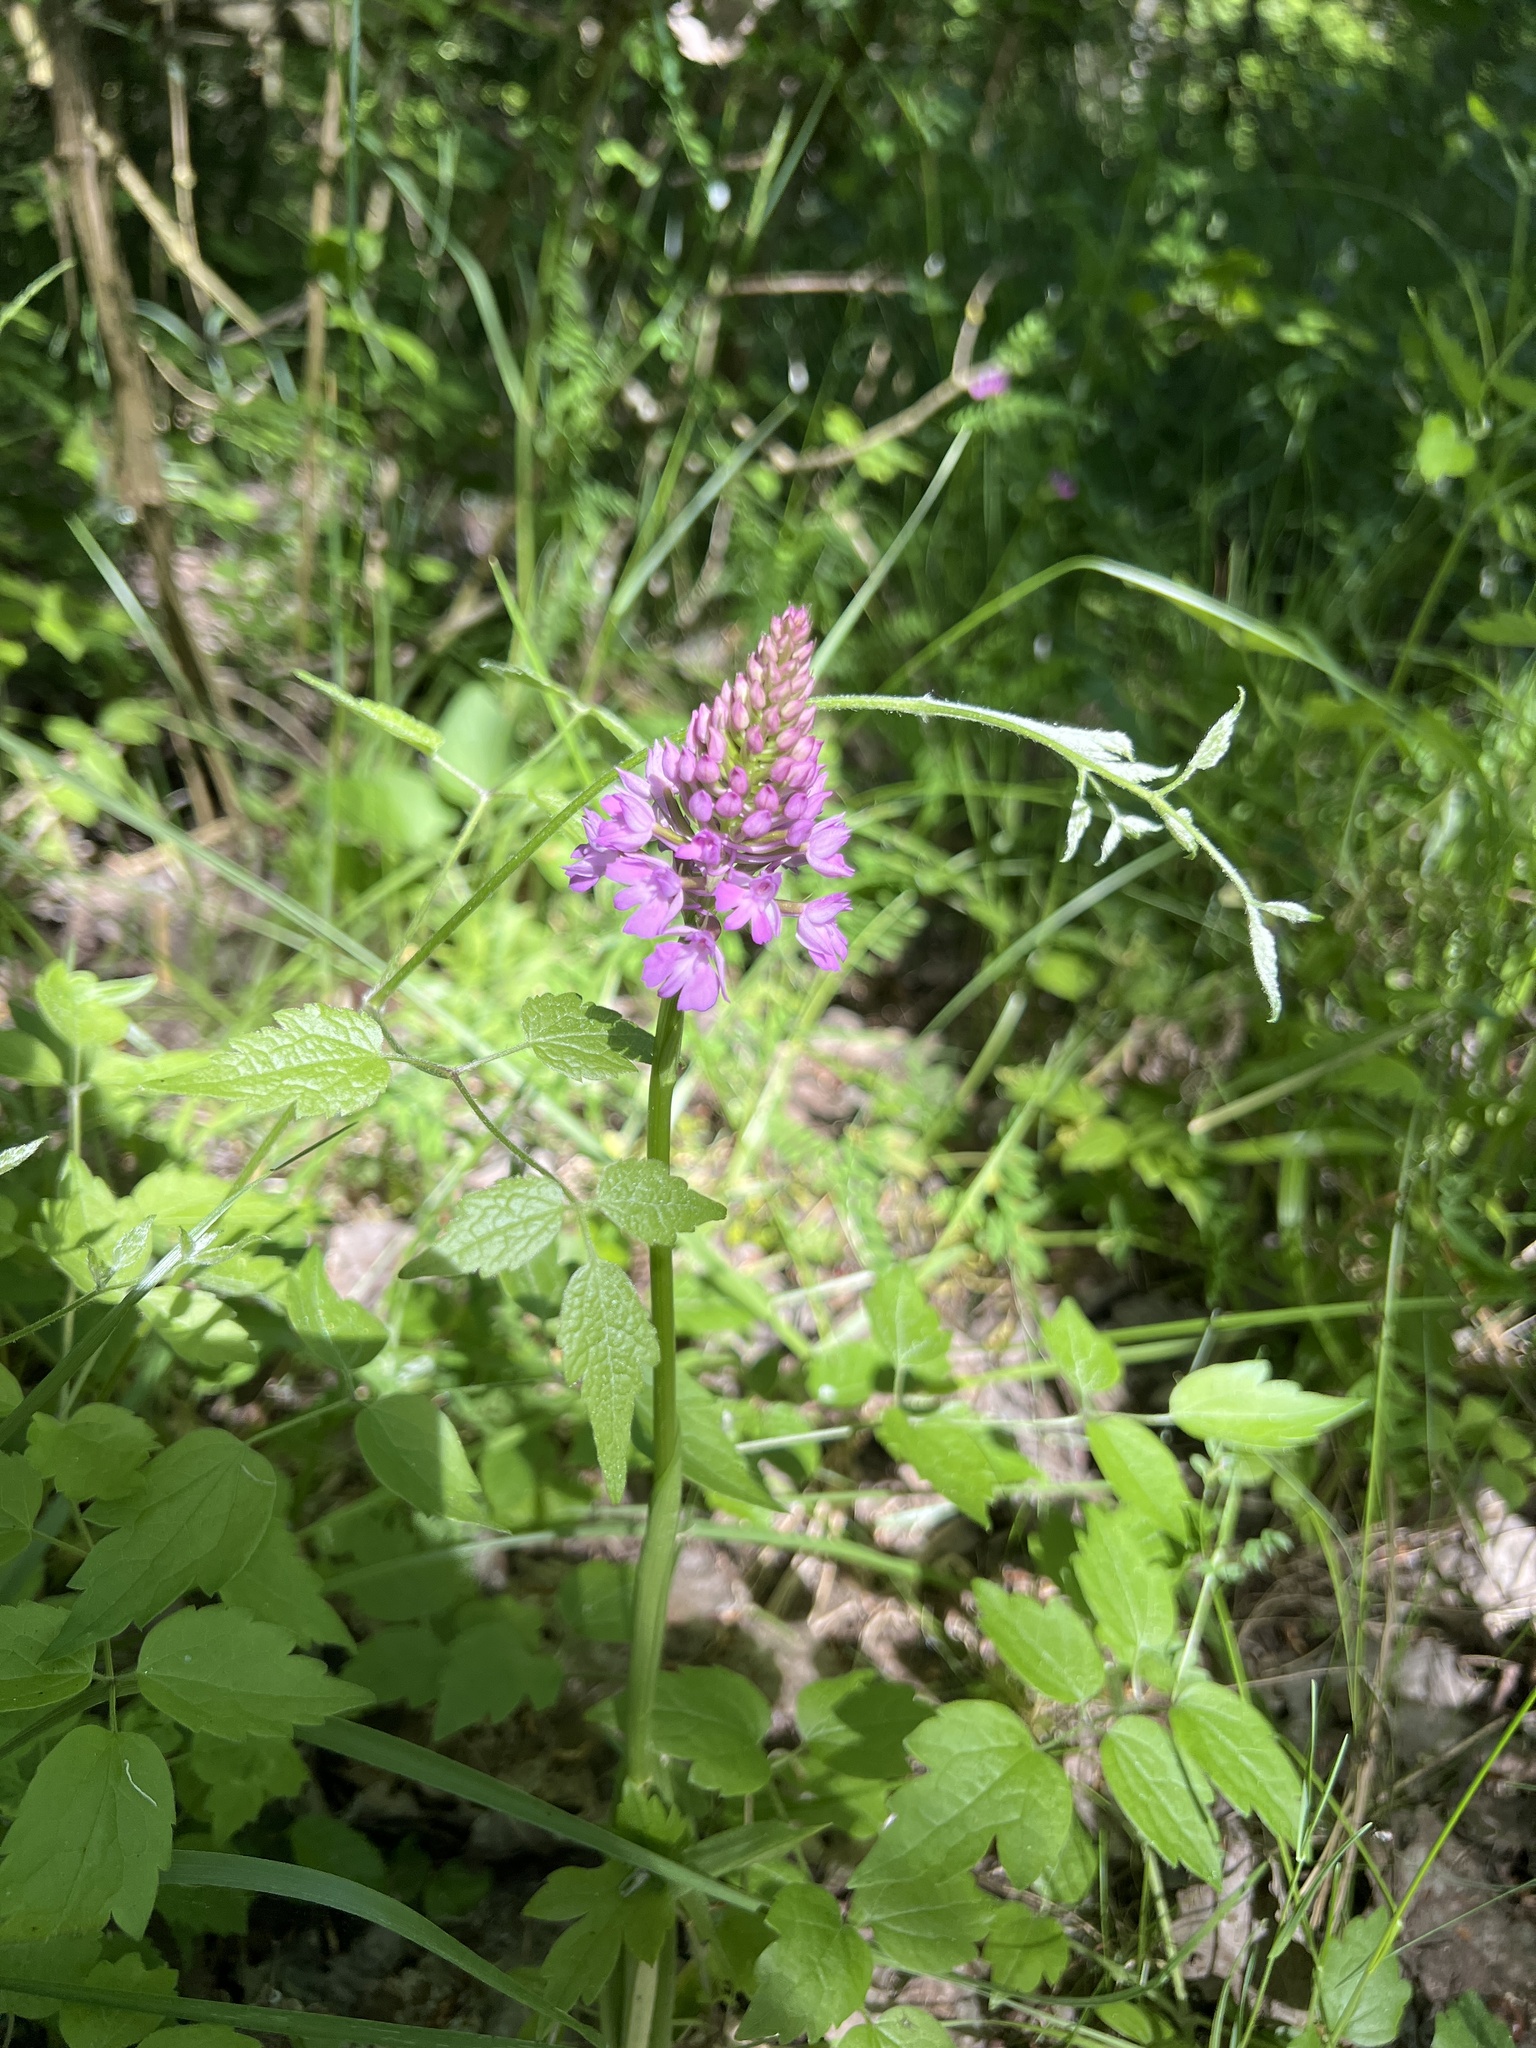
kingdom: Plantae
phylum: Tracheophyta
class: Liliopsida
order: Asparagales
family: Orchidaceae
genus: Anacamptis
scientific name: Anacamptis pyramidalis
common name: Pyramidal orchid
